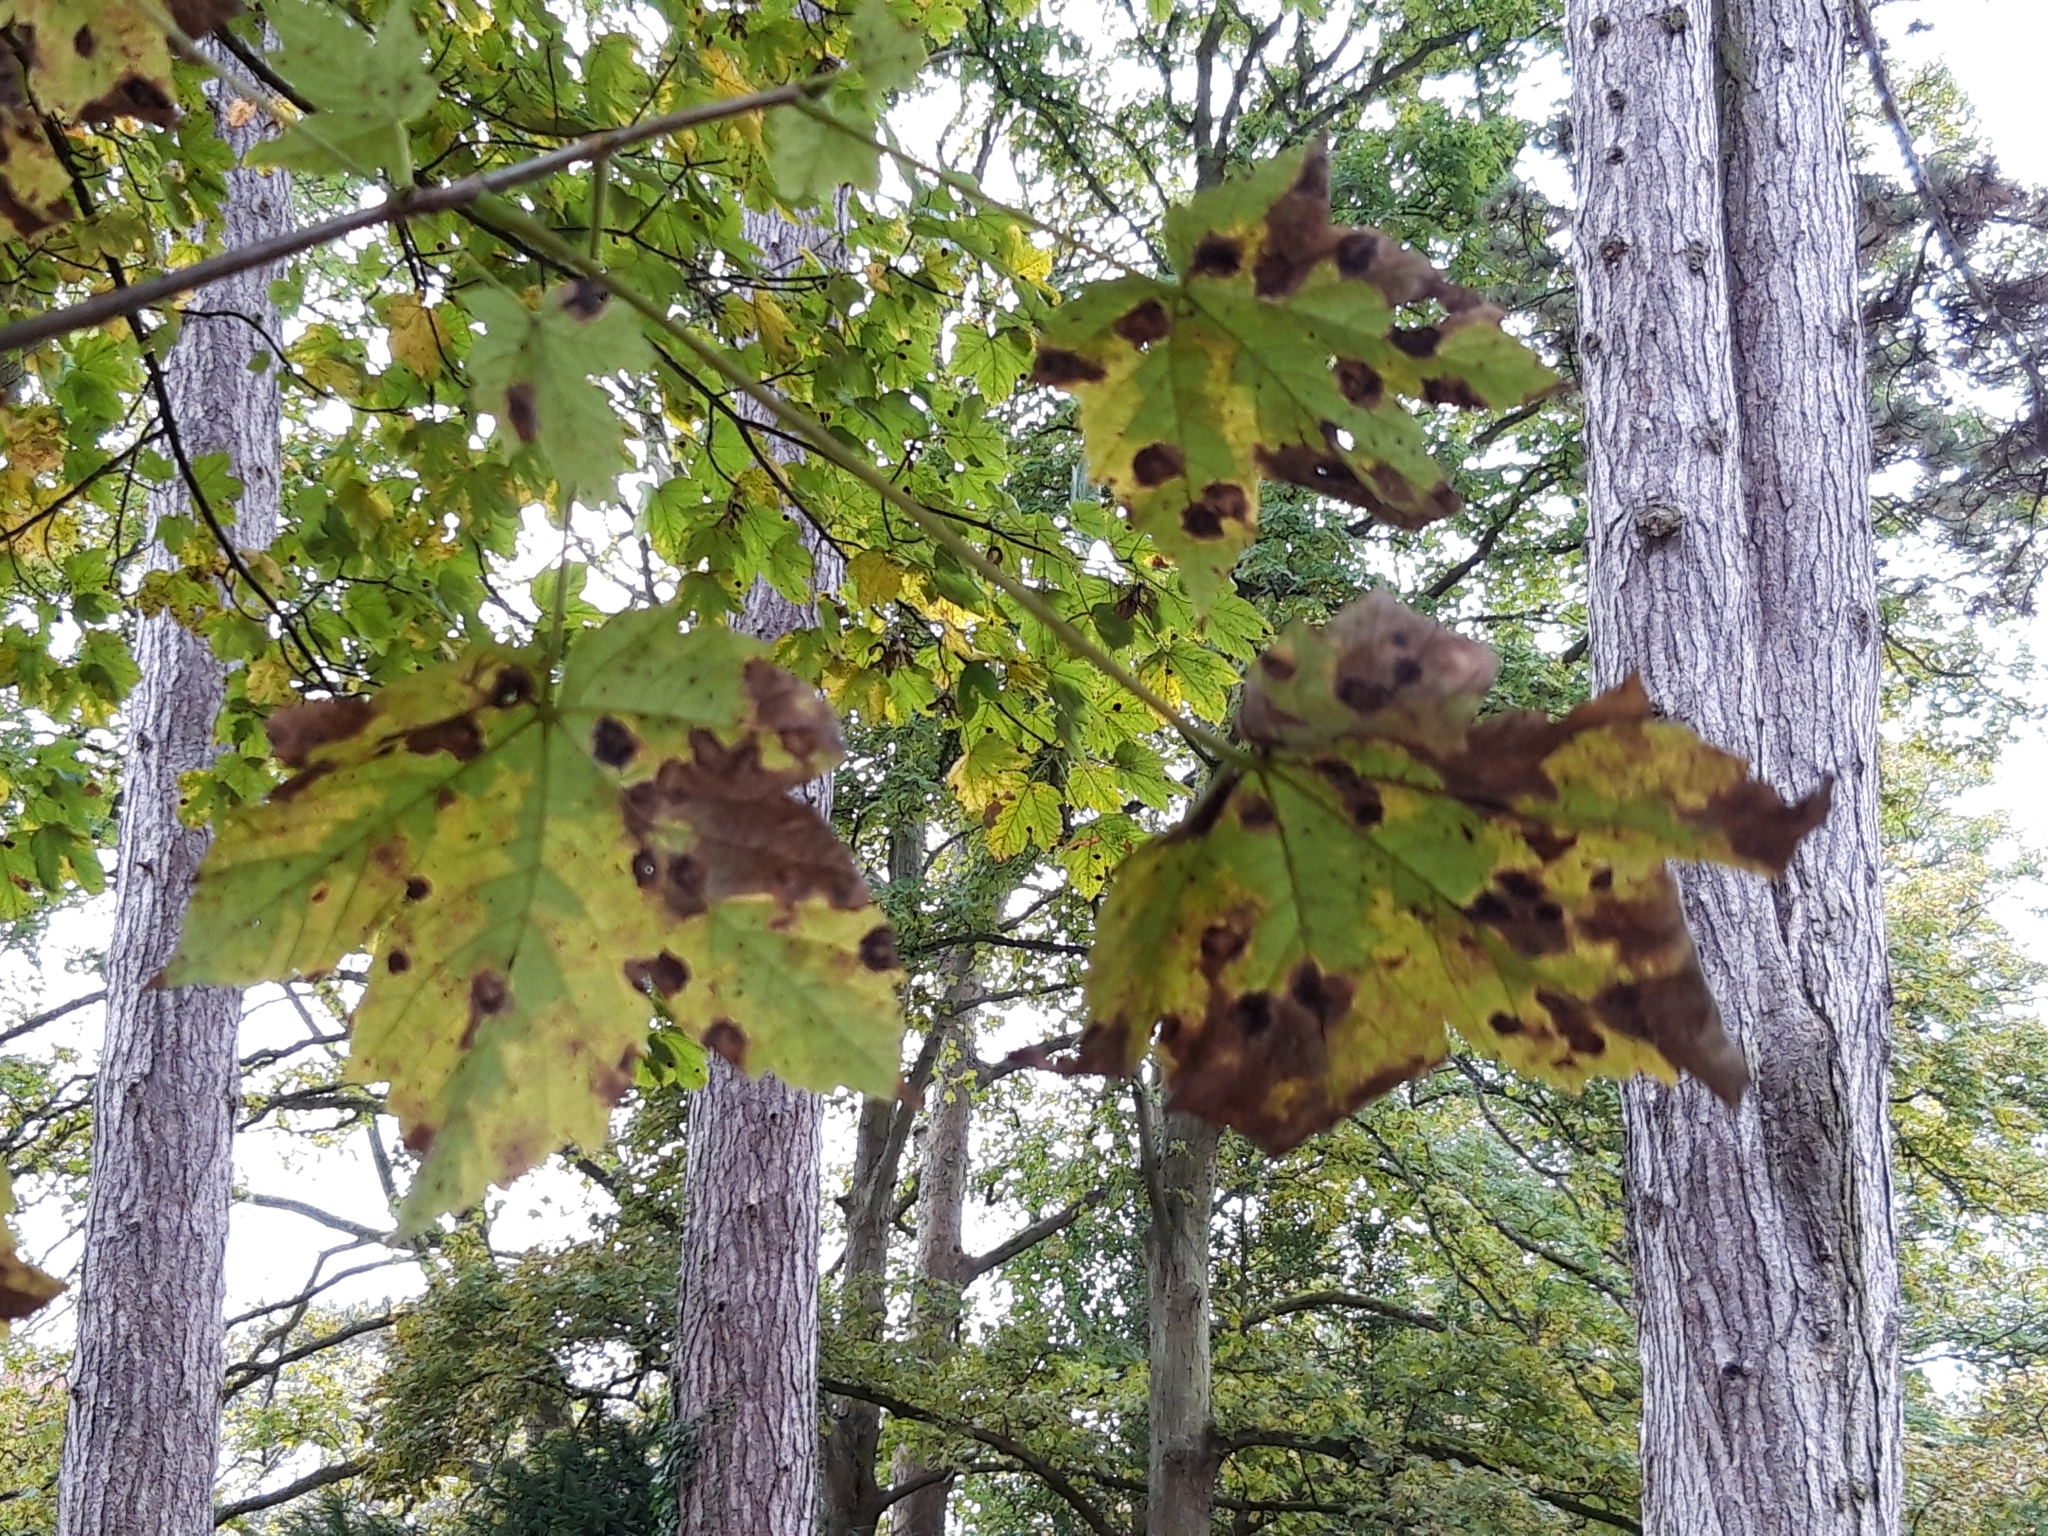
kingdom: Plantae
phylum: Tracheophyta
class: Magnoliopsida
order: Sapindales
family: Sapindaceae
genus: Acer
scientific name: Acer platanoides
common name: Norway maple
